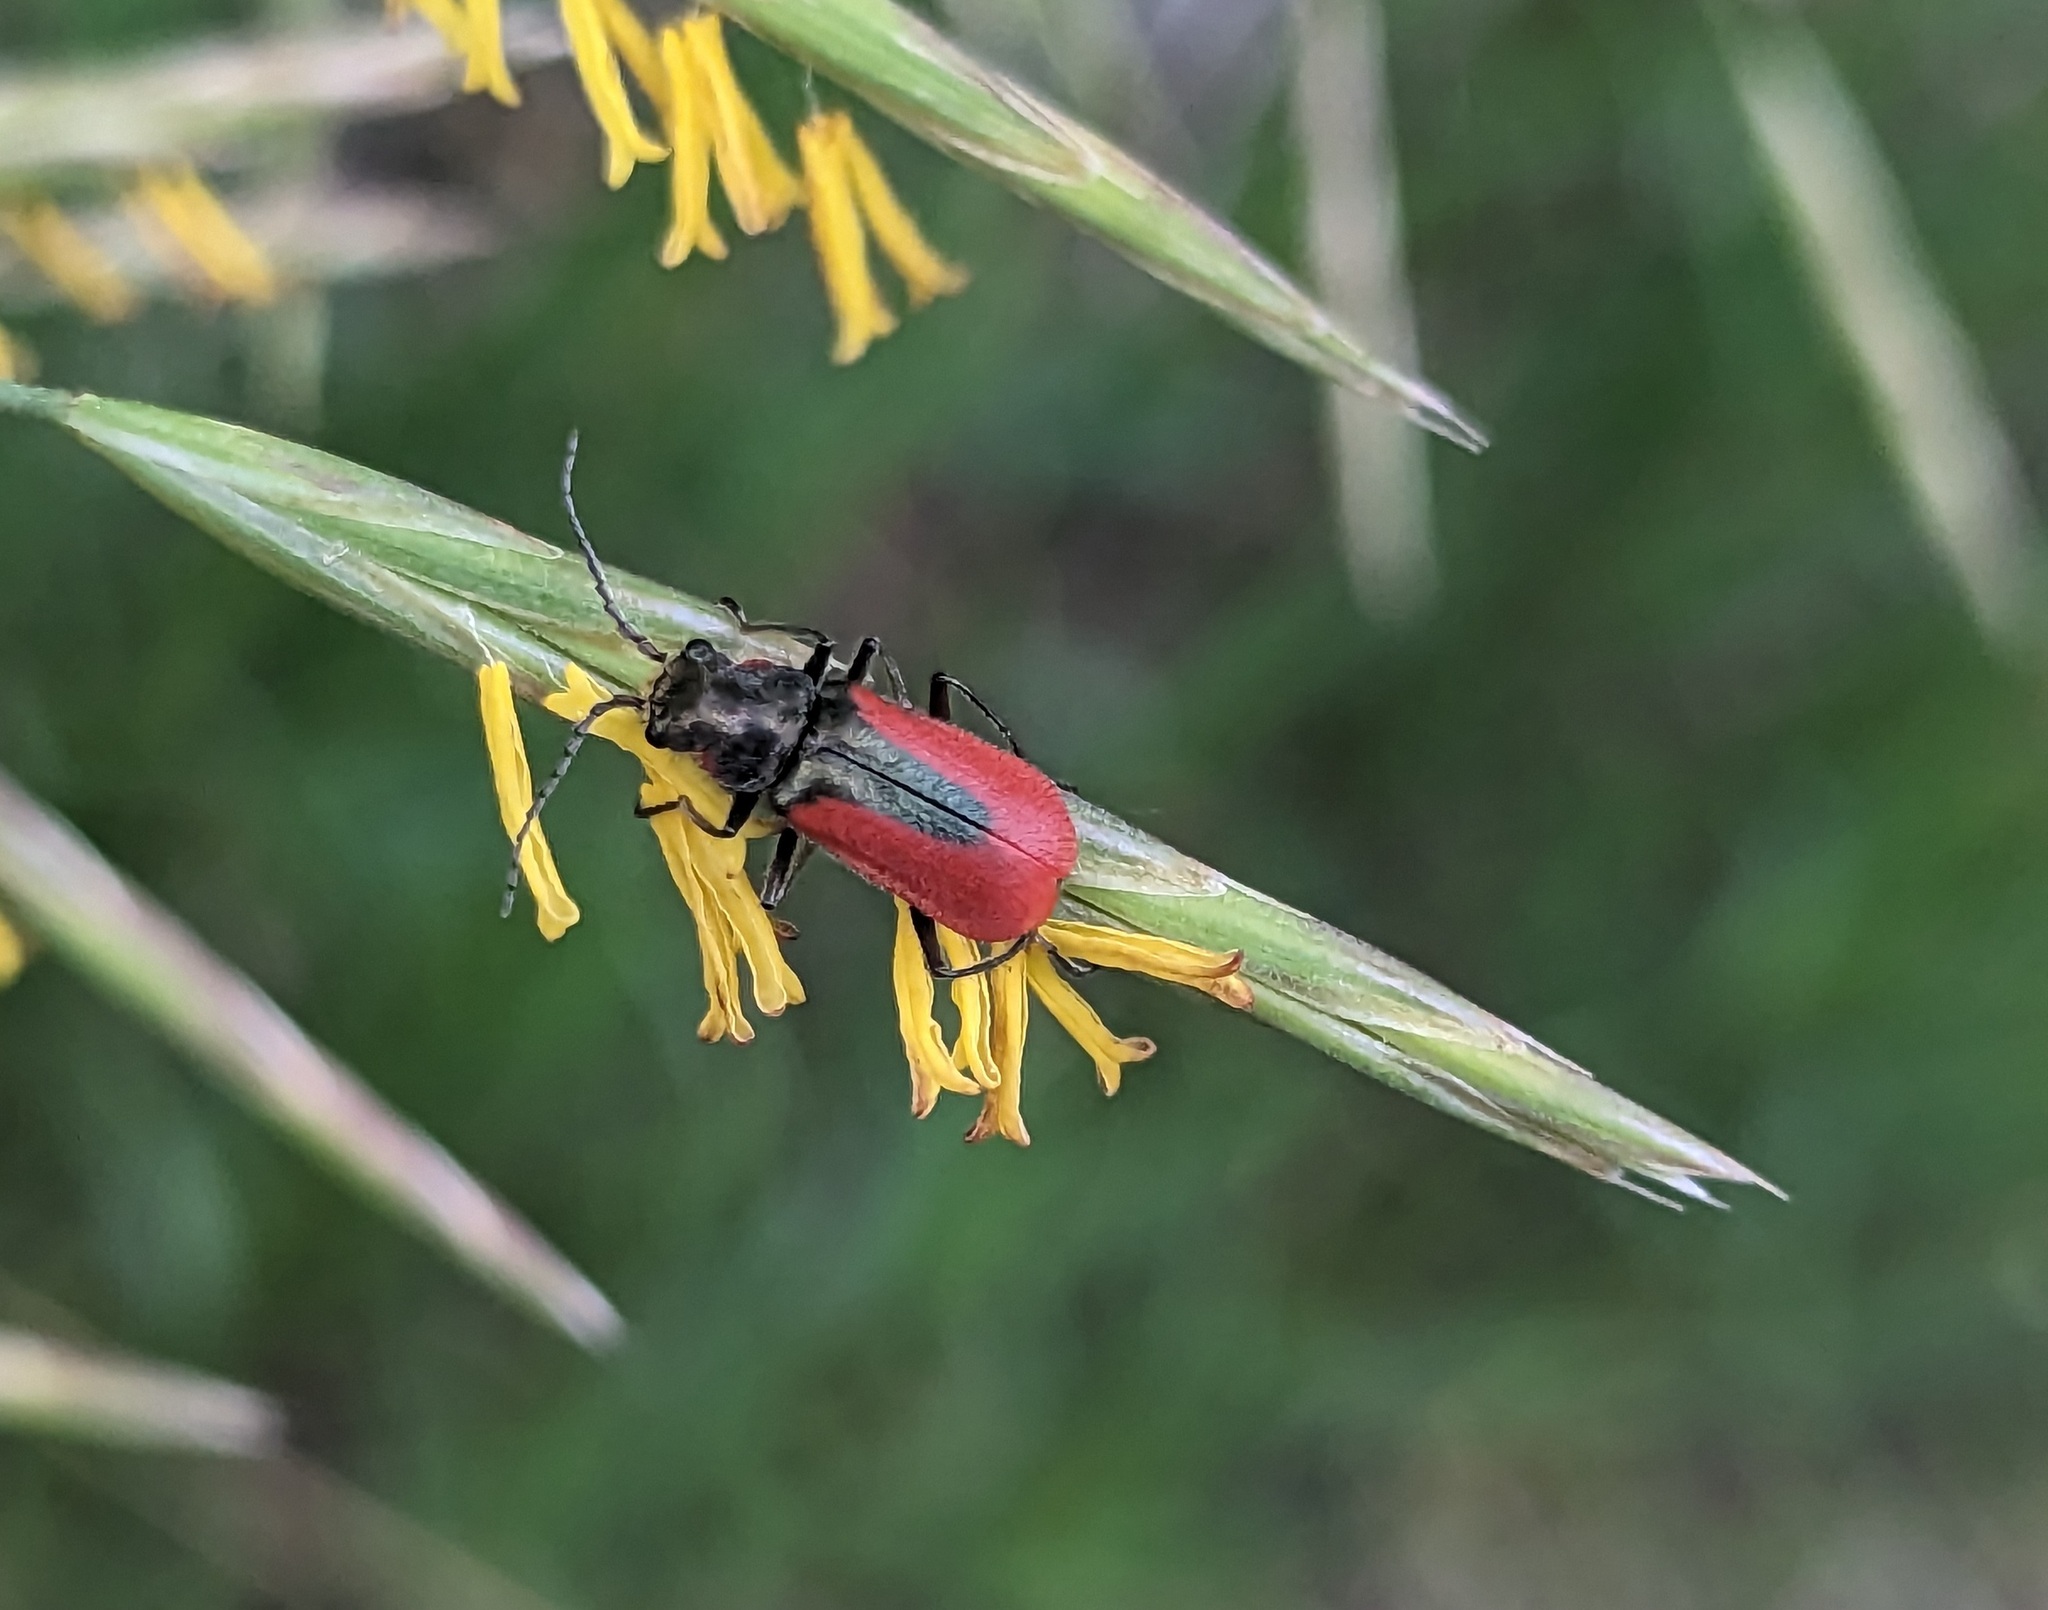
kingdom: Animalia
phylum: Arthropoda
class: Insecta
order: Coleoptera
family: Melyridae
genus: Malachius
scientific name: Malachius aeneus
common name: Scarlet malachite beetle
